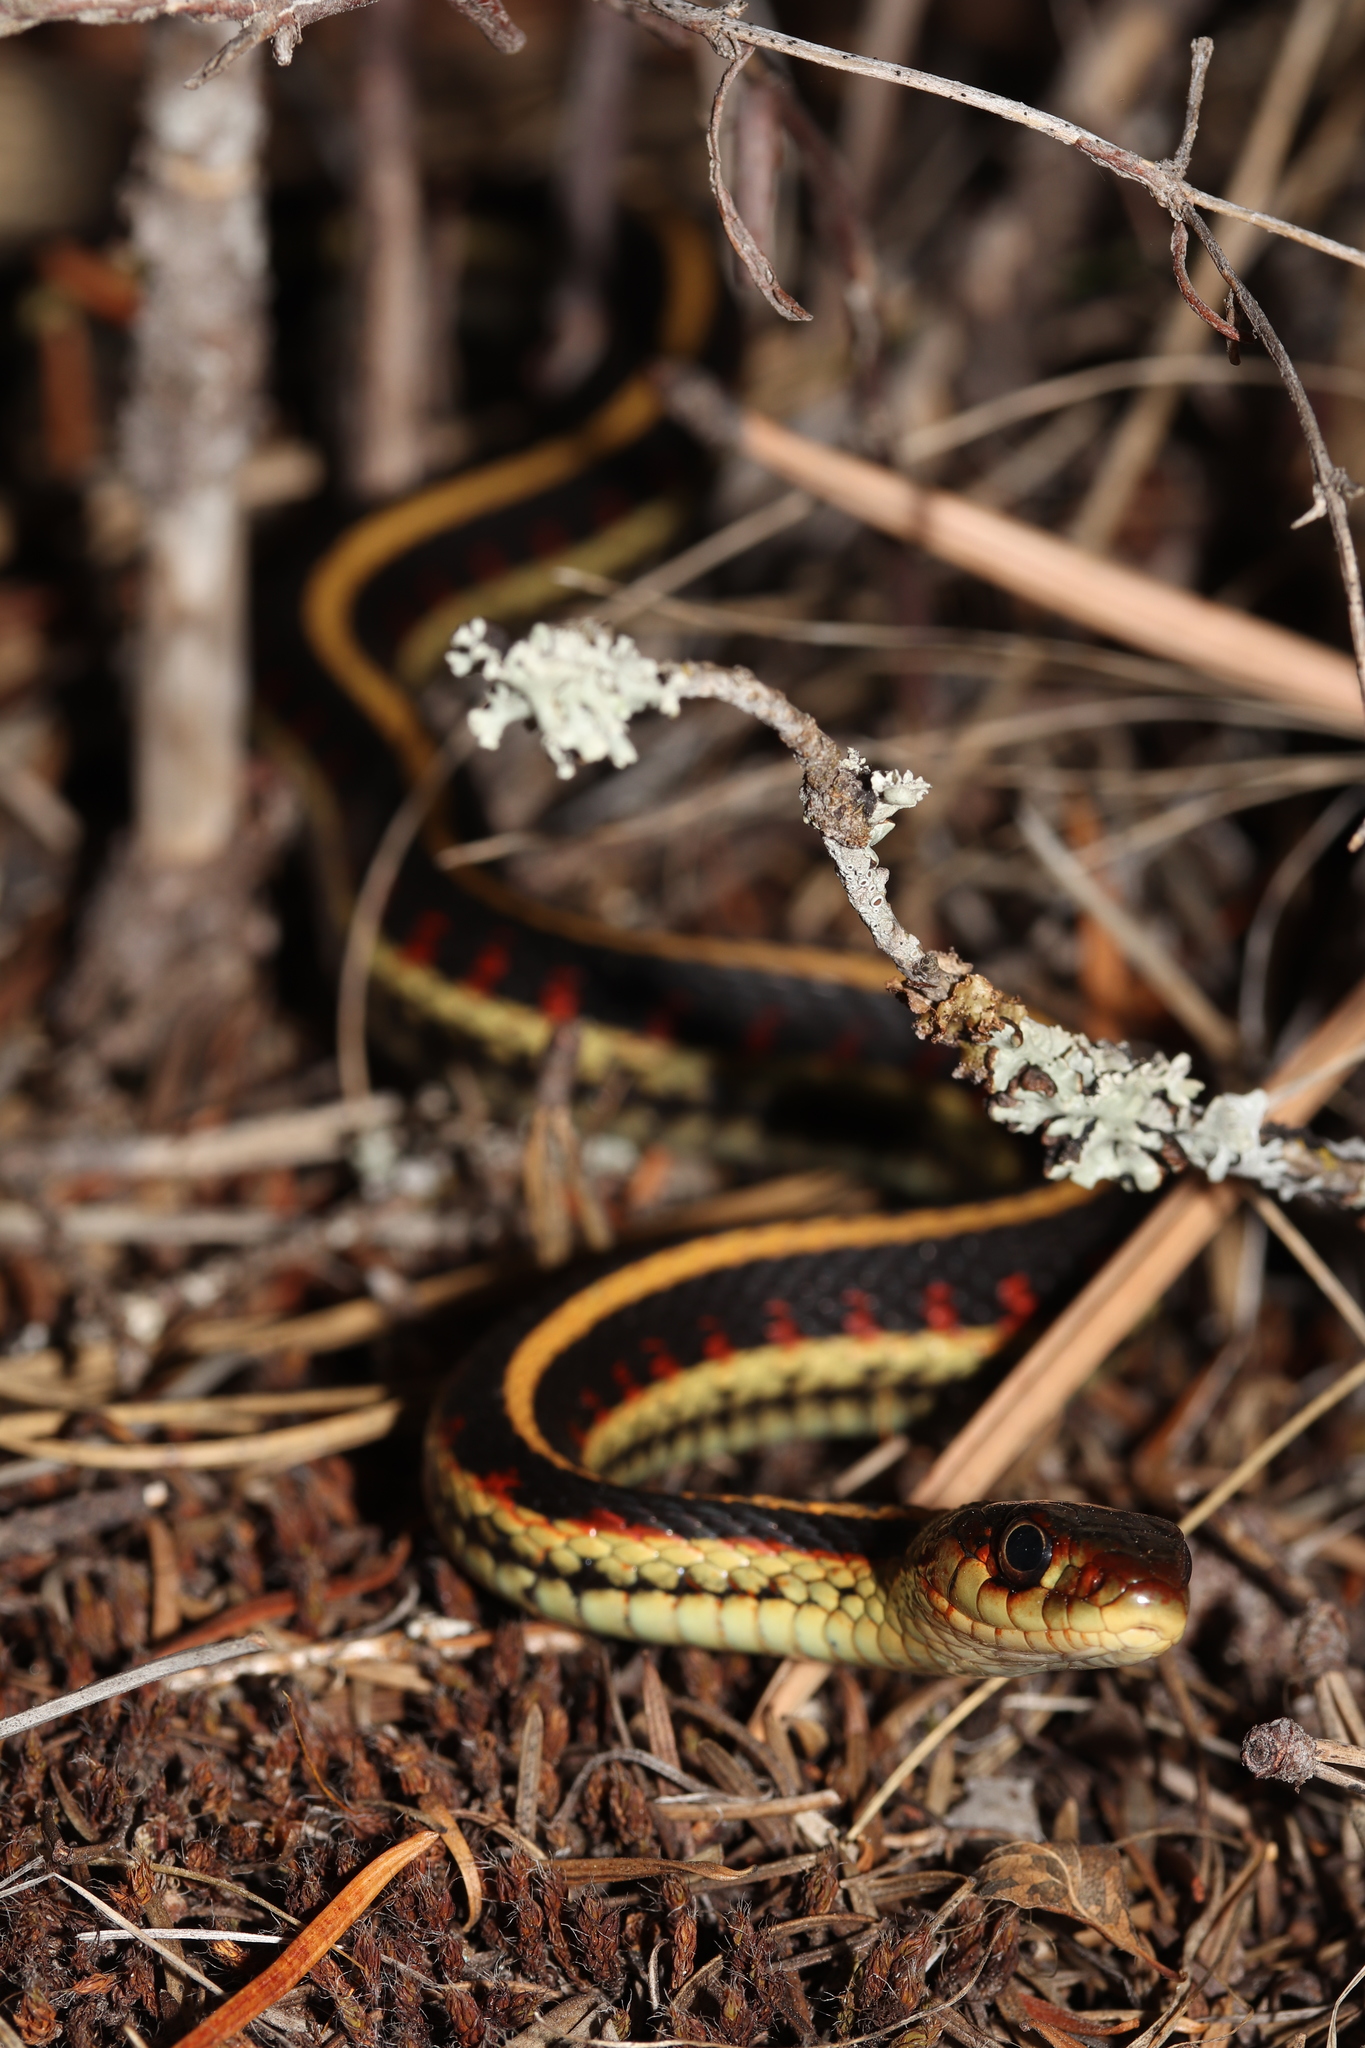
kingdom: Animalia
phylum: Chordata
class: Squamata
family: Colubridae
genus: Thamnophis
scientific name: Thamnophis sirtalis
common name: Common garter snake
